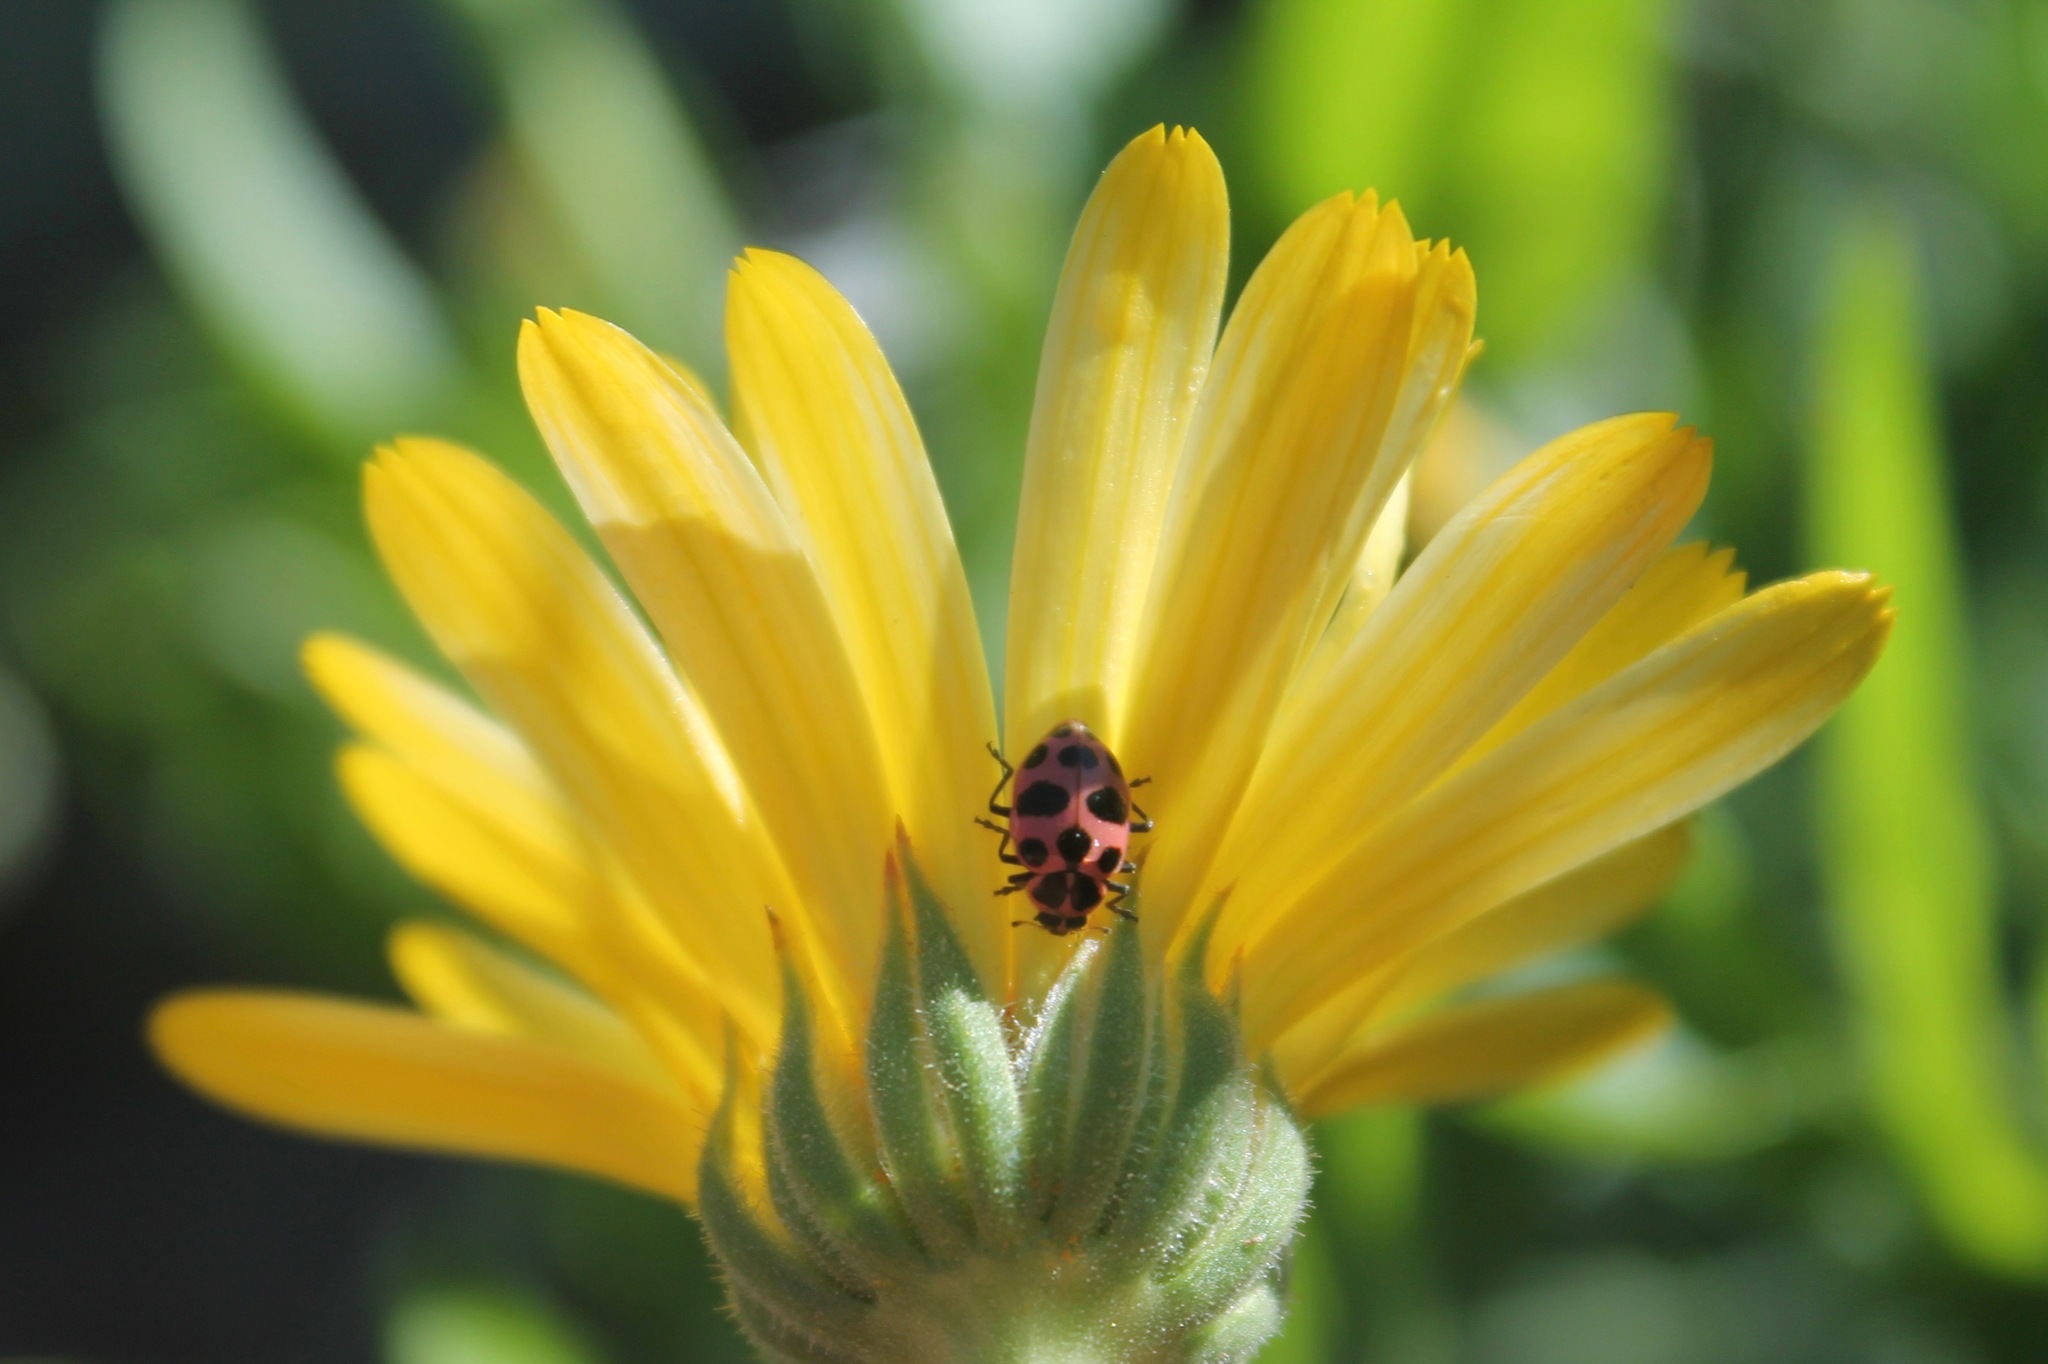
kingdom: Animalia
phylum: Arthropoda
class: Insecta
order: Coleoptera
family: Coccinellidae
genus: Coleomegilla
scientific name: Coleomegilla maculata
